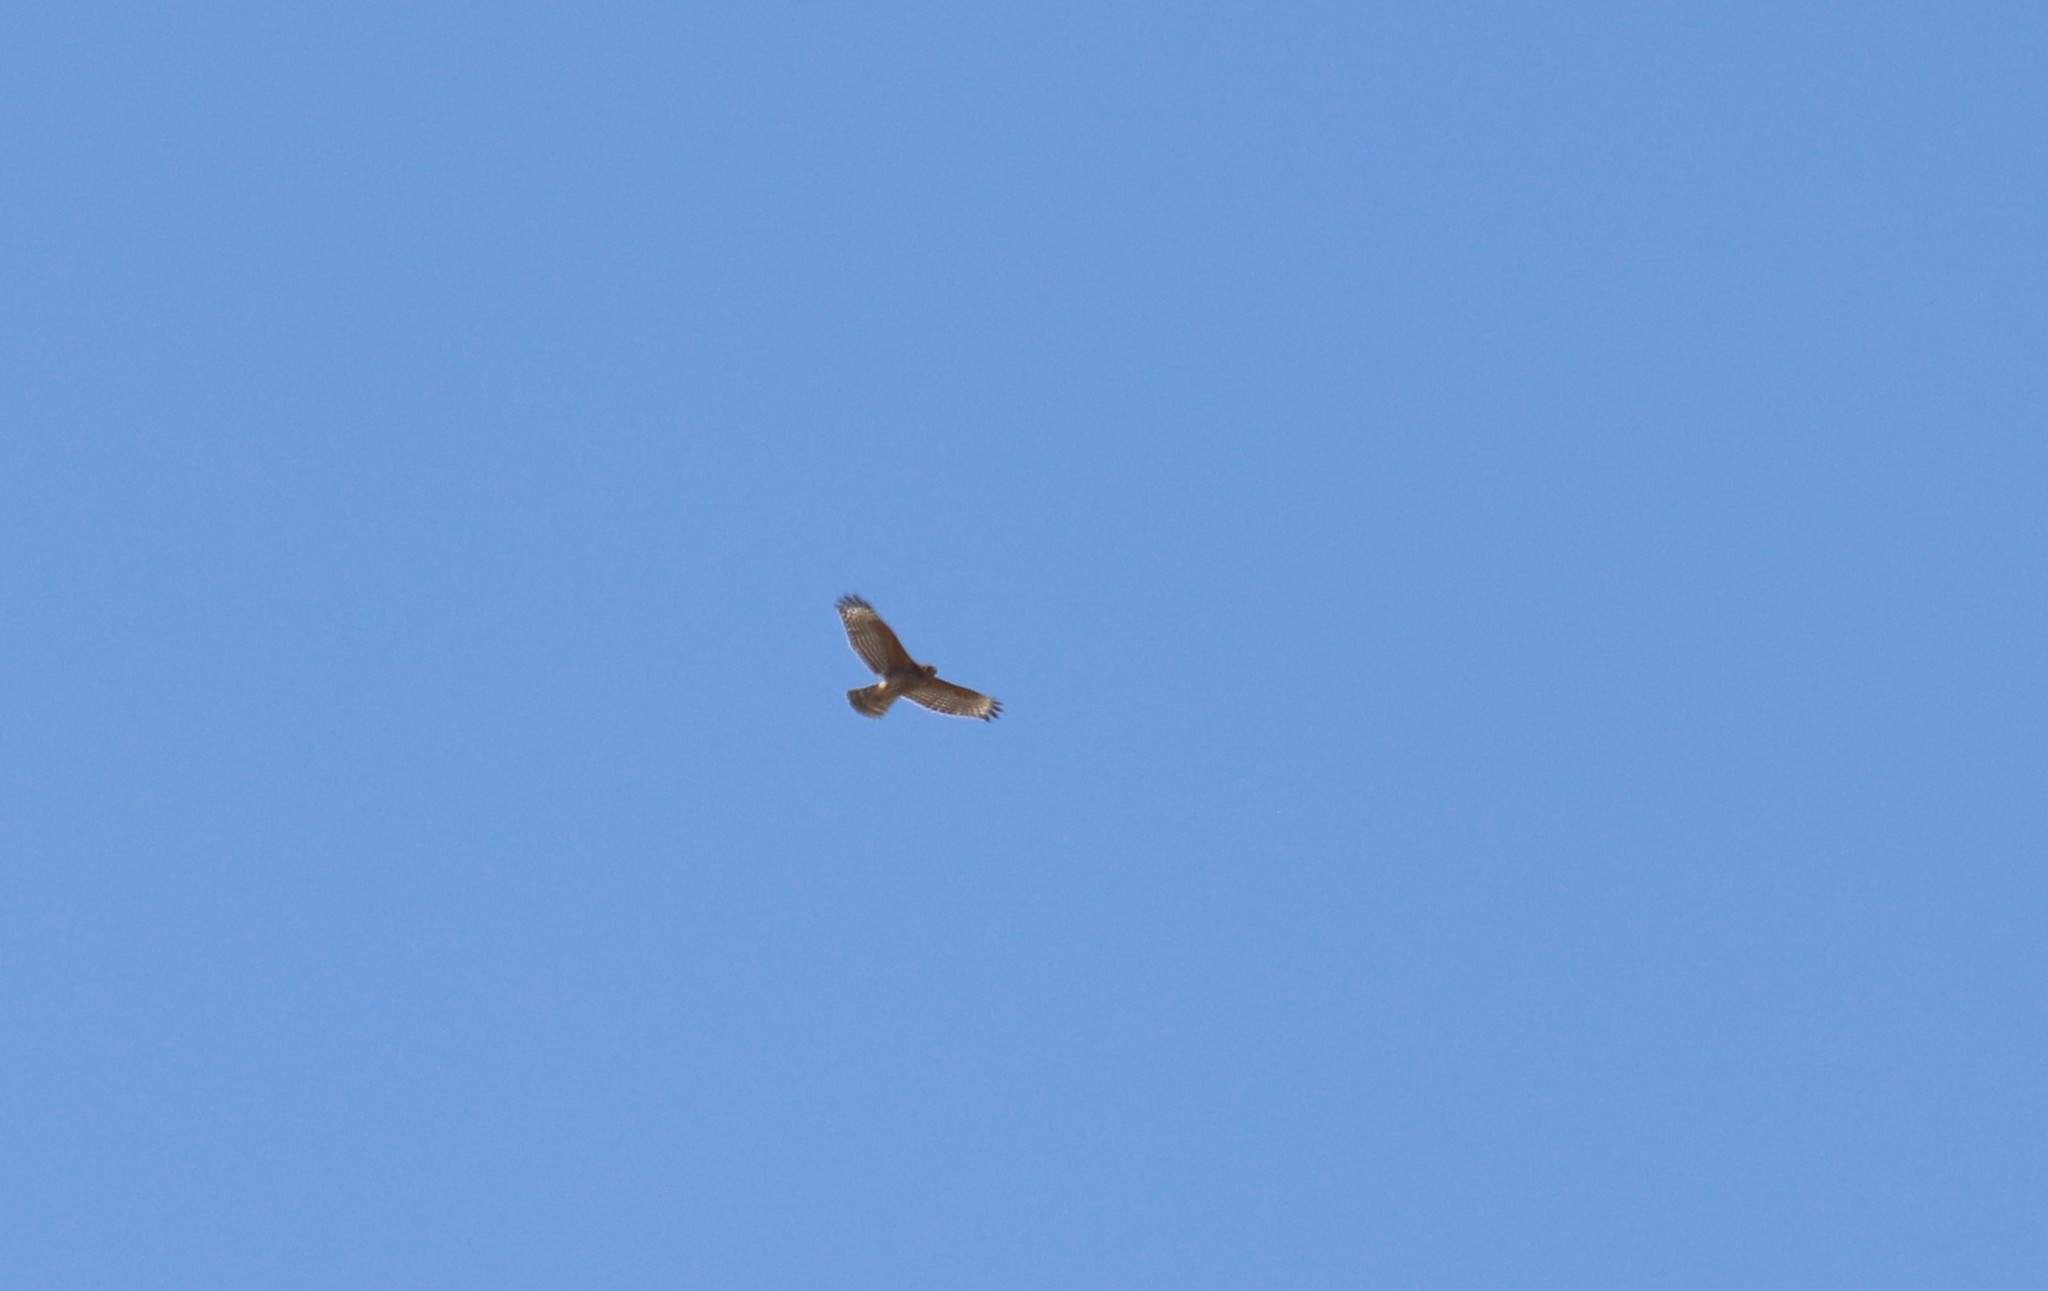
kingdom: Animalia
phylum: Chordata
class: Aves
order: Accipitriformes
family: Accipitridae
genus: Buteo
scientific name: Buteo lineatus
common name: Red-shouldered hawk
